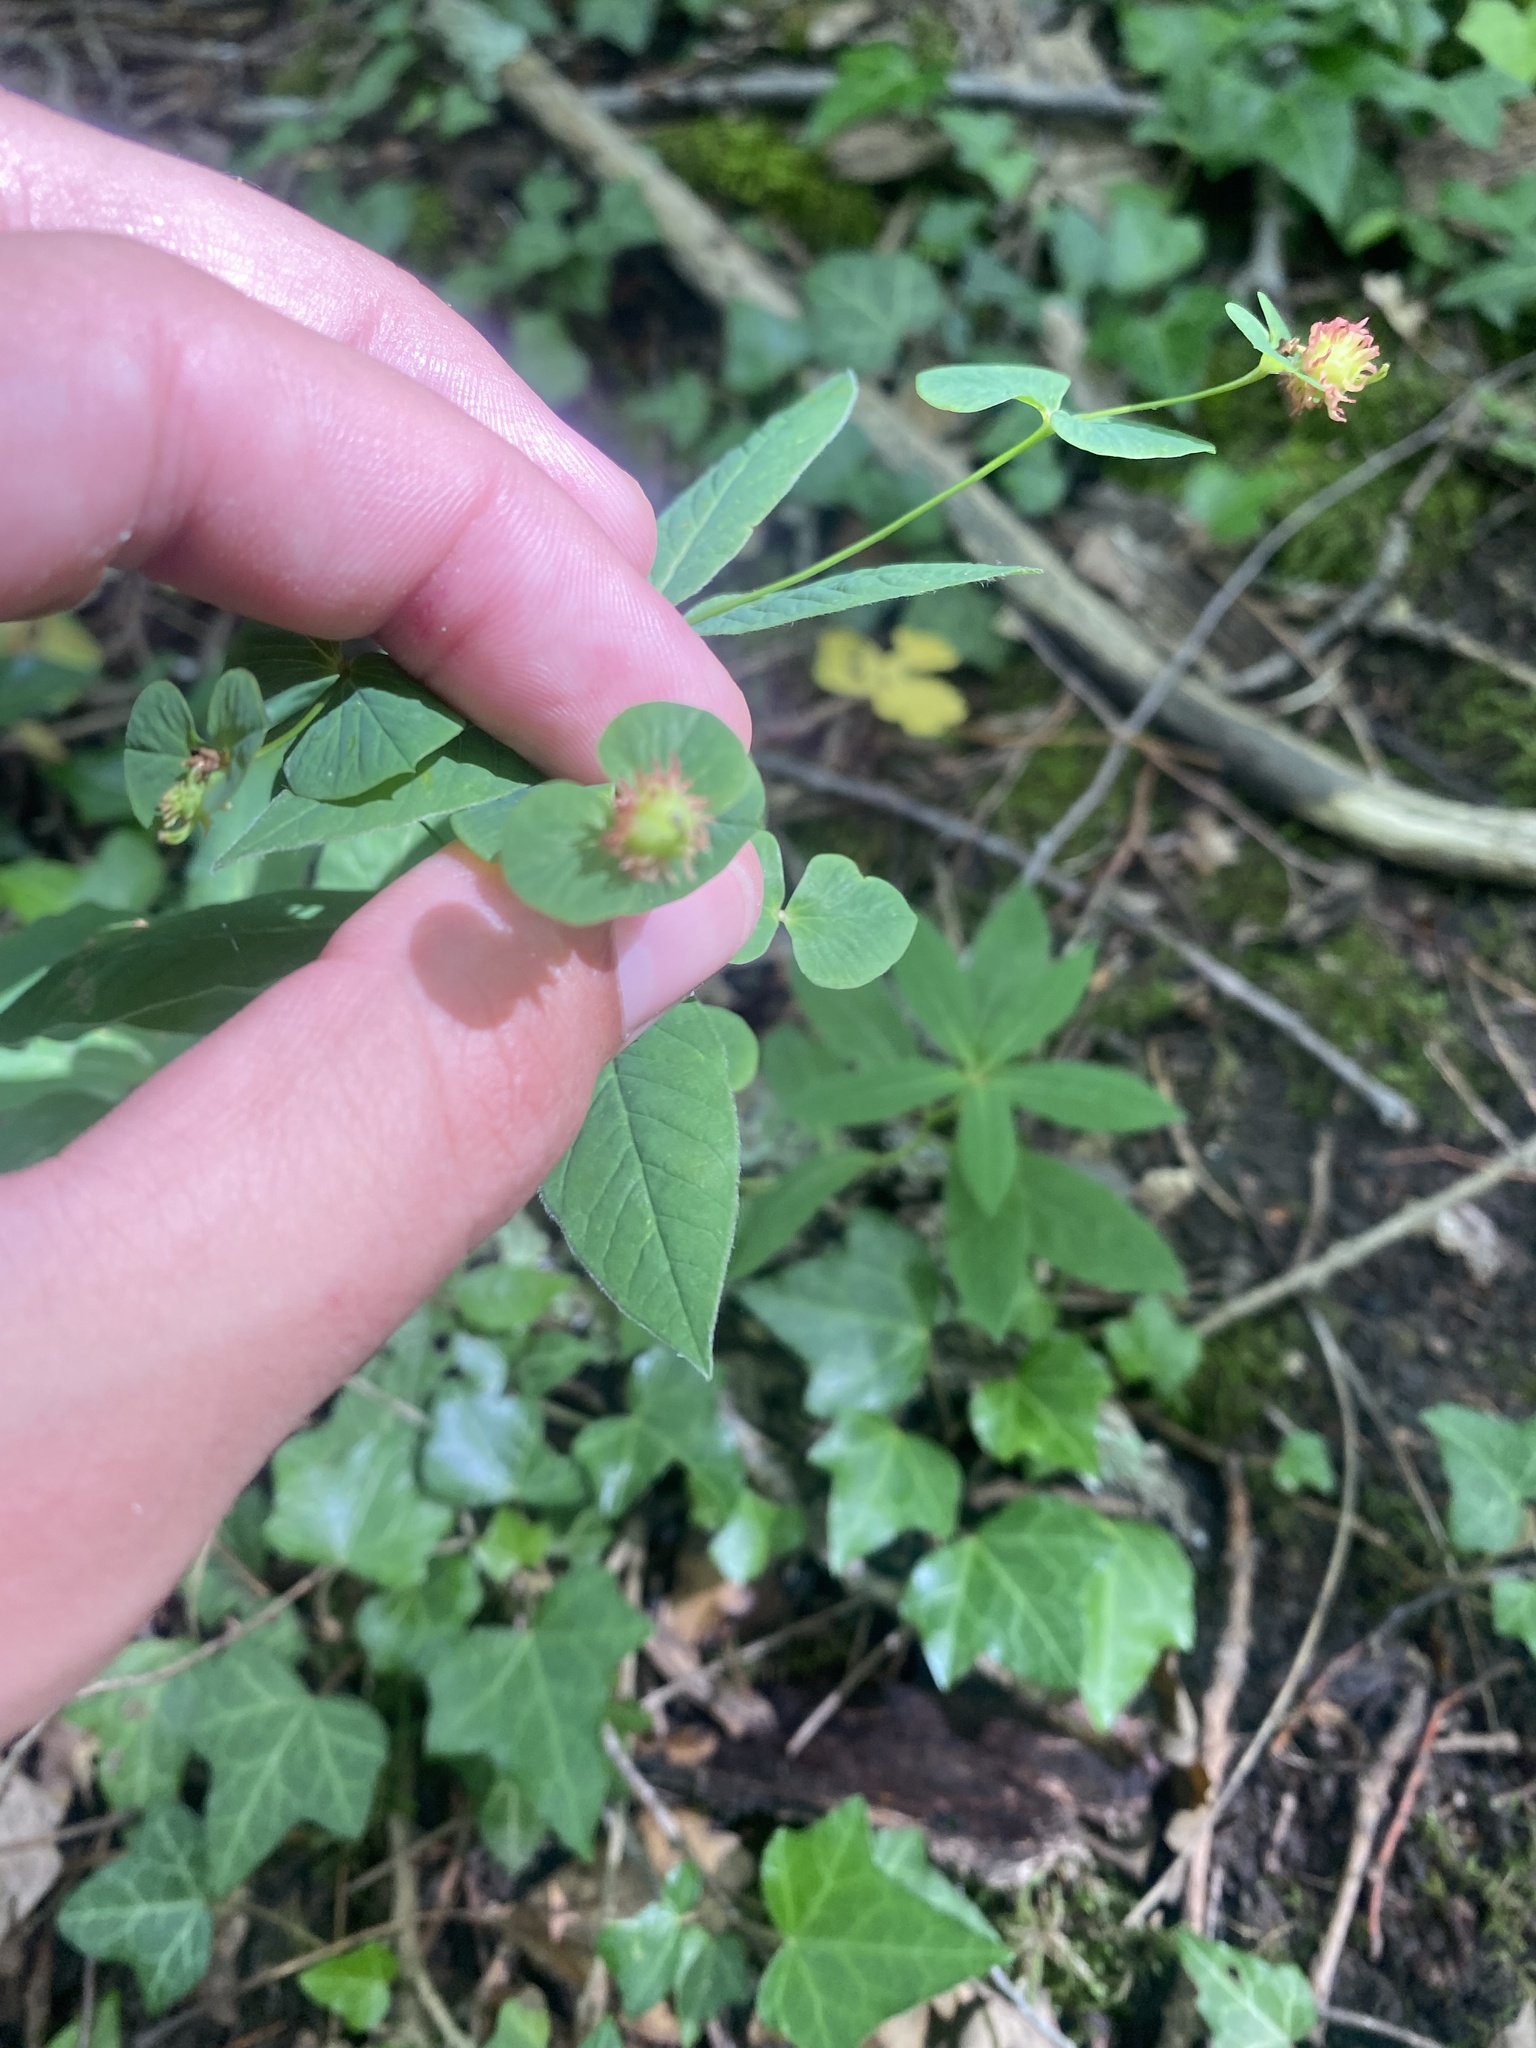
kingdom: Plantae
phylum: Tracheophyta
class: Magnoliopsida
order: Malpighiales
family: Euphorbiaceae
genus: Euphorbia
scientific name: Euphorbia squamosa
